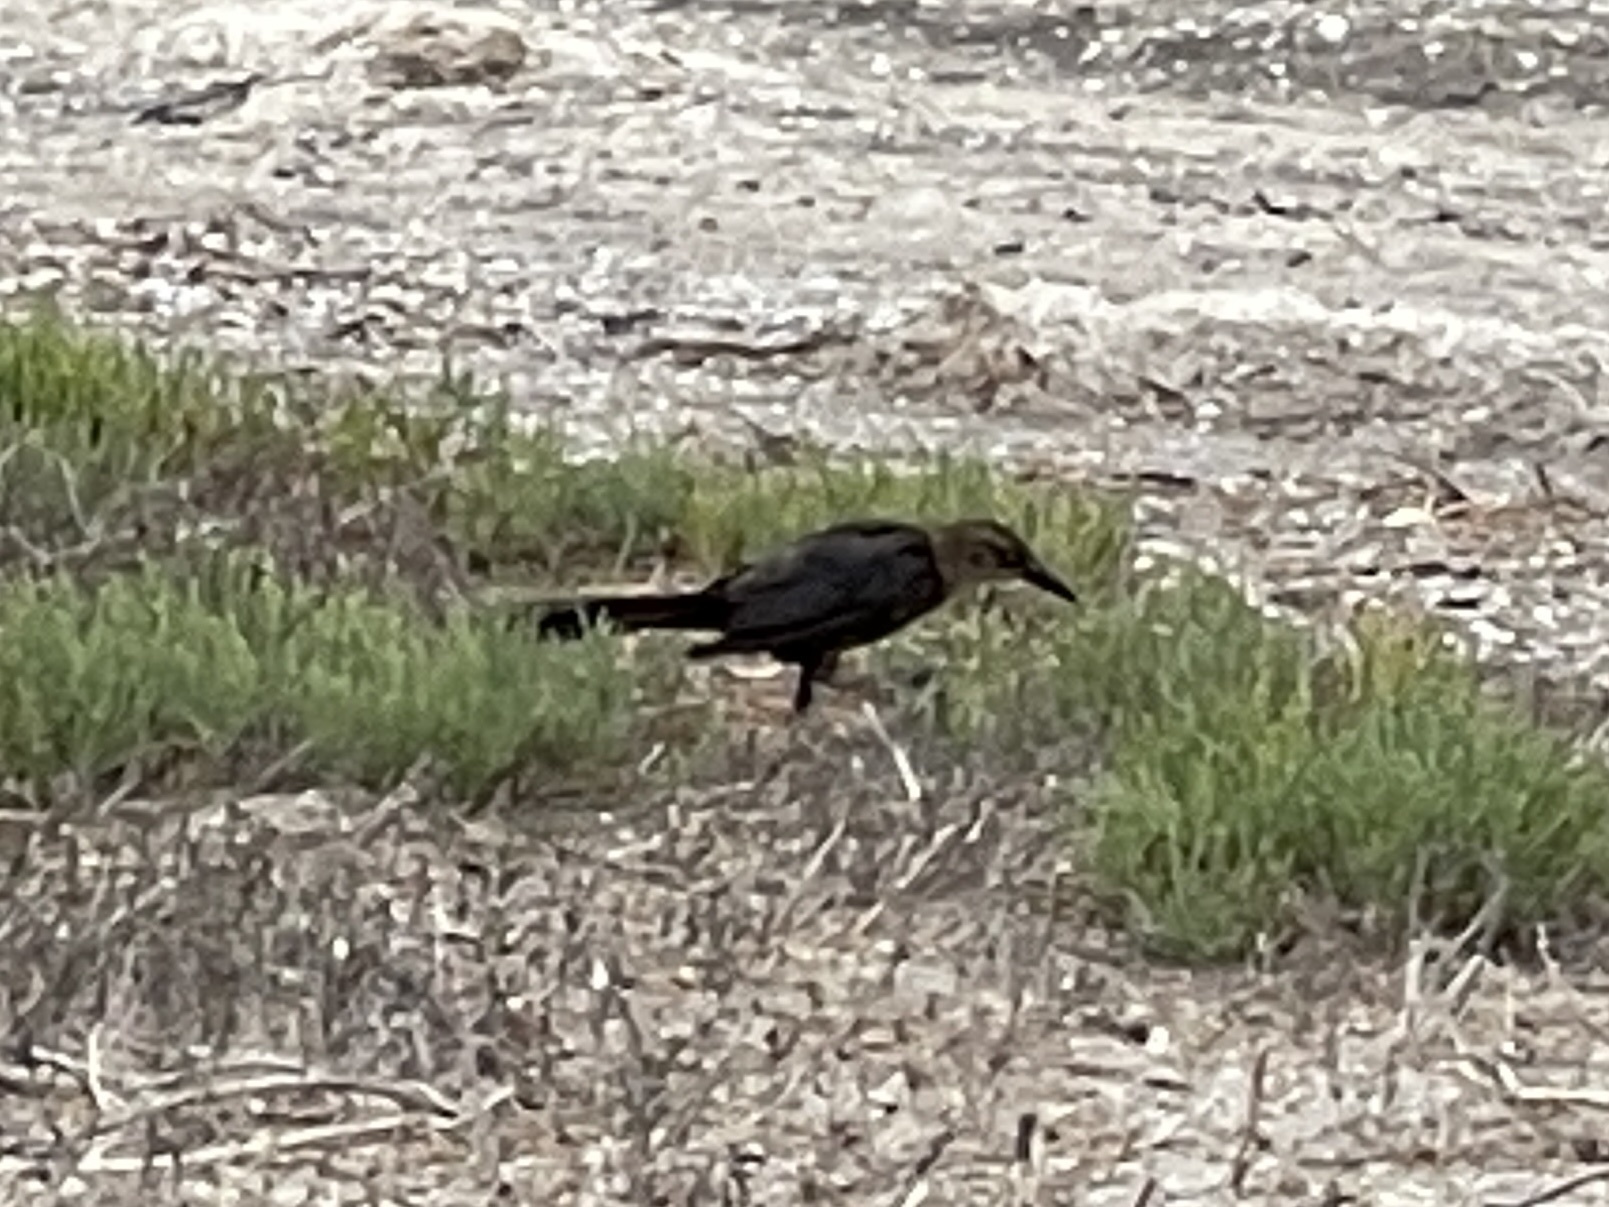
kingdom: Animalia
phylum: Chordata
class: Aves
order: Passeriformes
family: Icteridae
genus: Quiscalus
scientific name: Quiscalus mexicanus
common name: Great-tailed grackle
